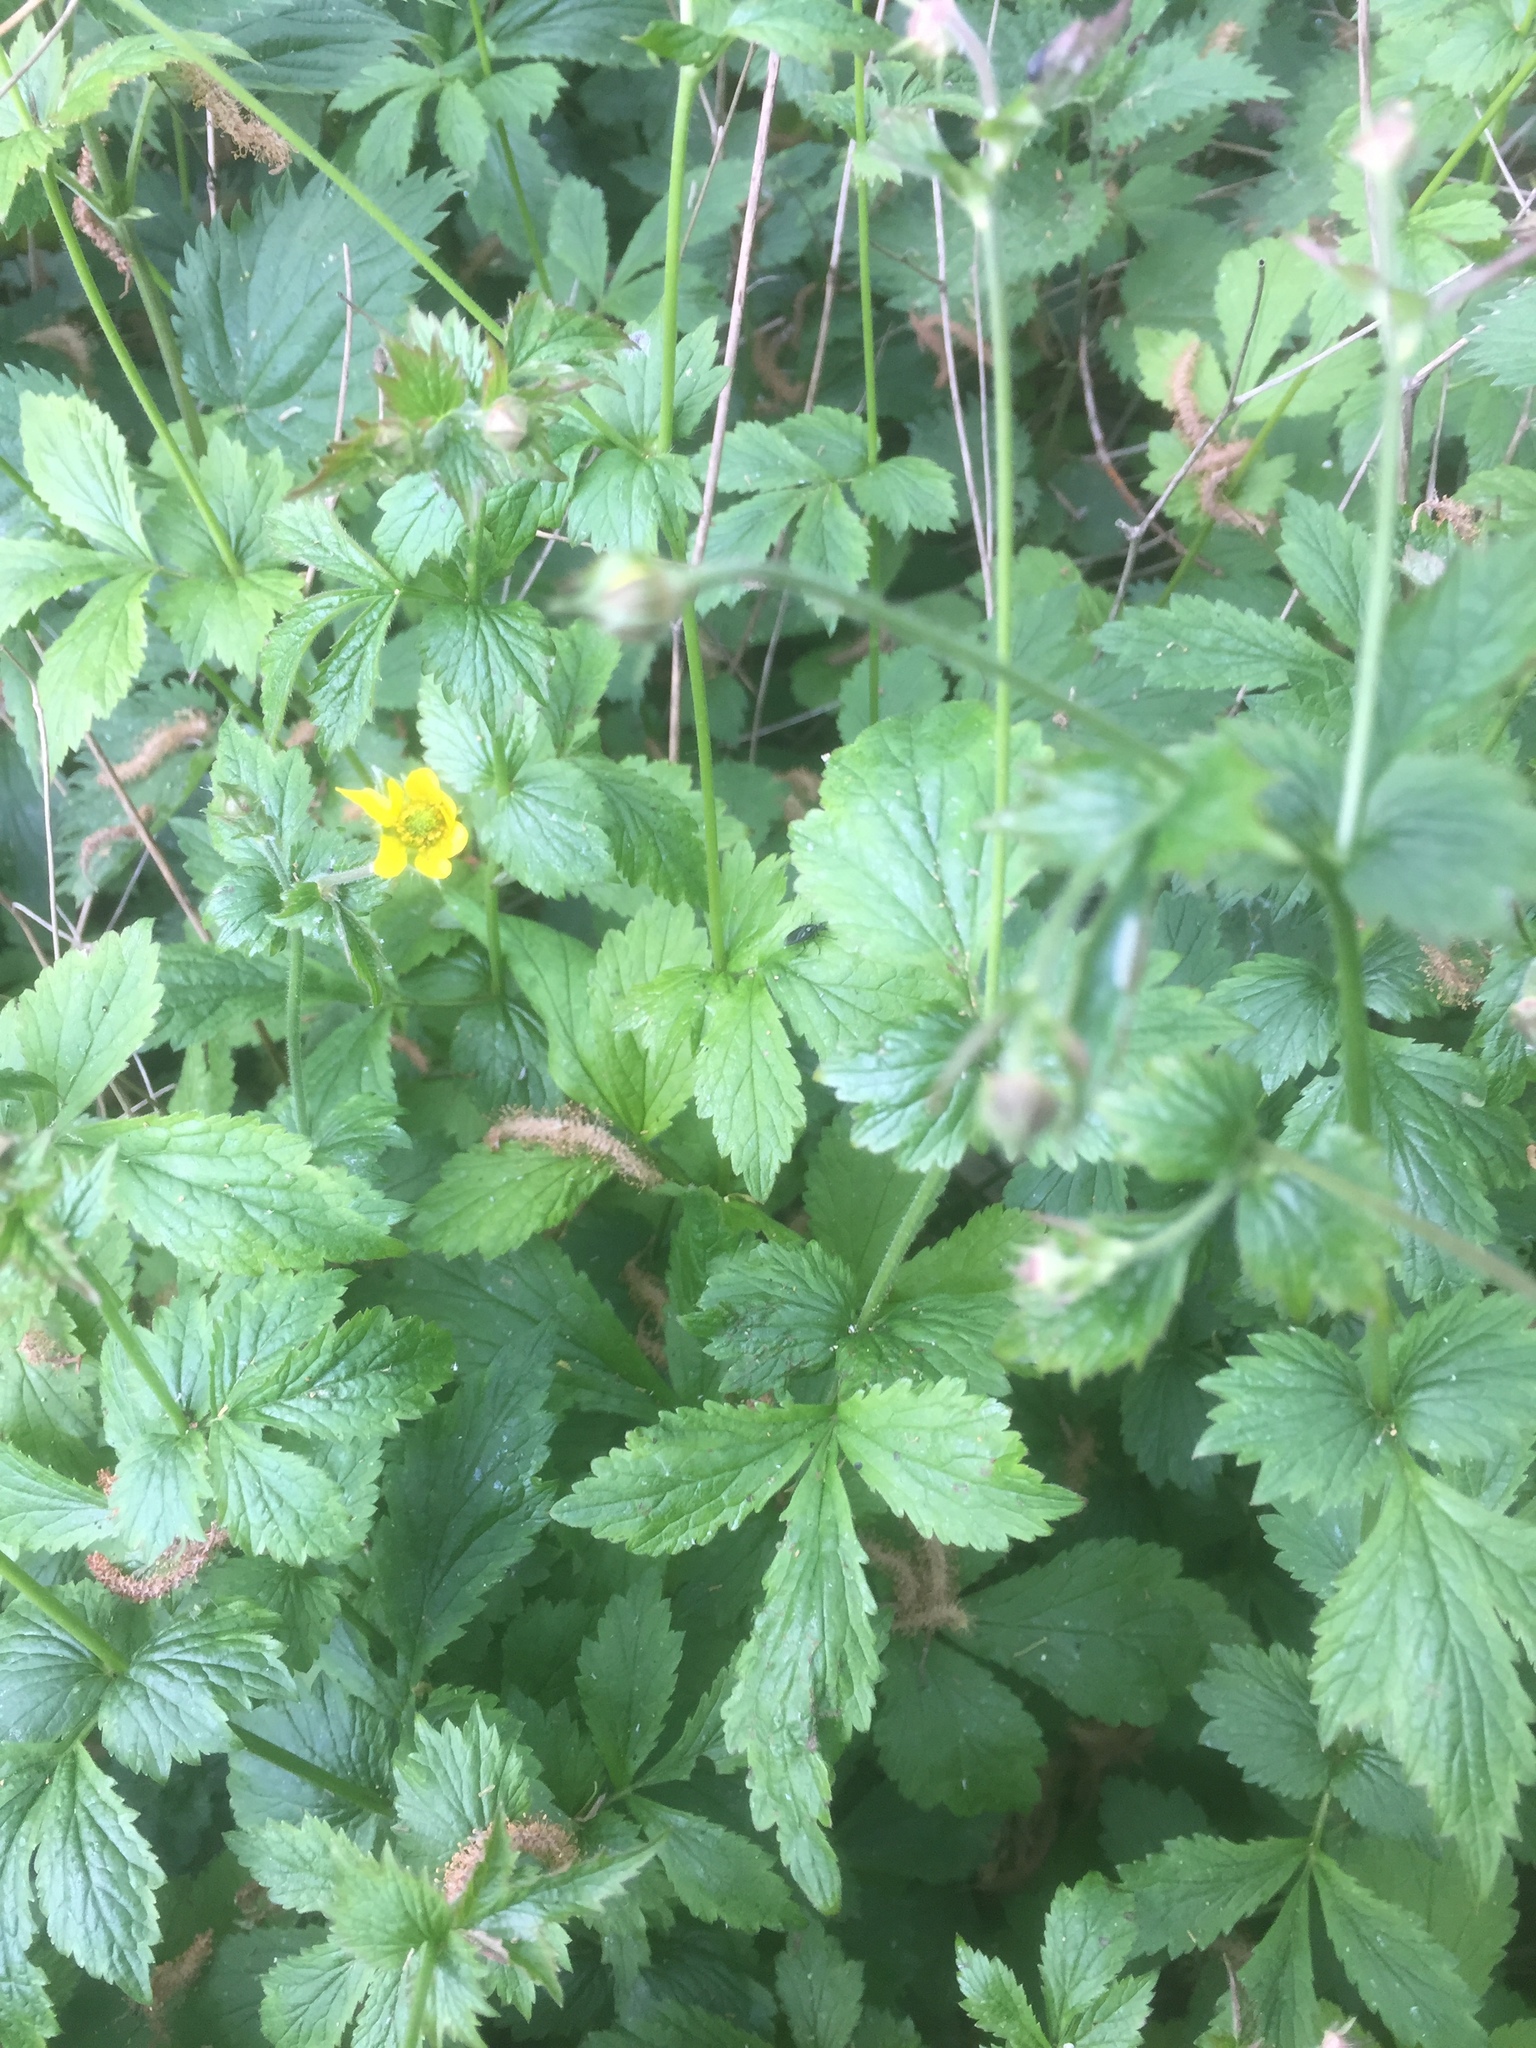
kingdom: Plantae
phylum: Tracheophyta
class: Magnoliopsida
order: Rosales
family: Rosaceae
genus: Geum
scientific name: Geum urbanum
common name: Wood avens
